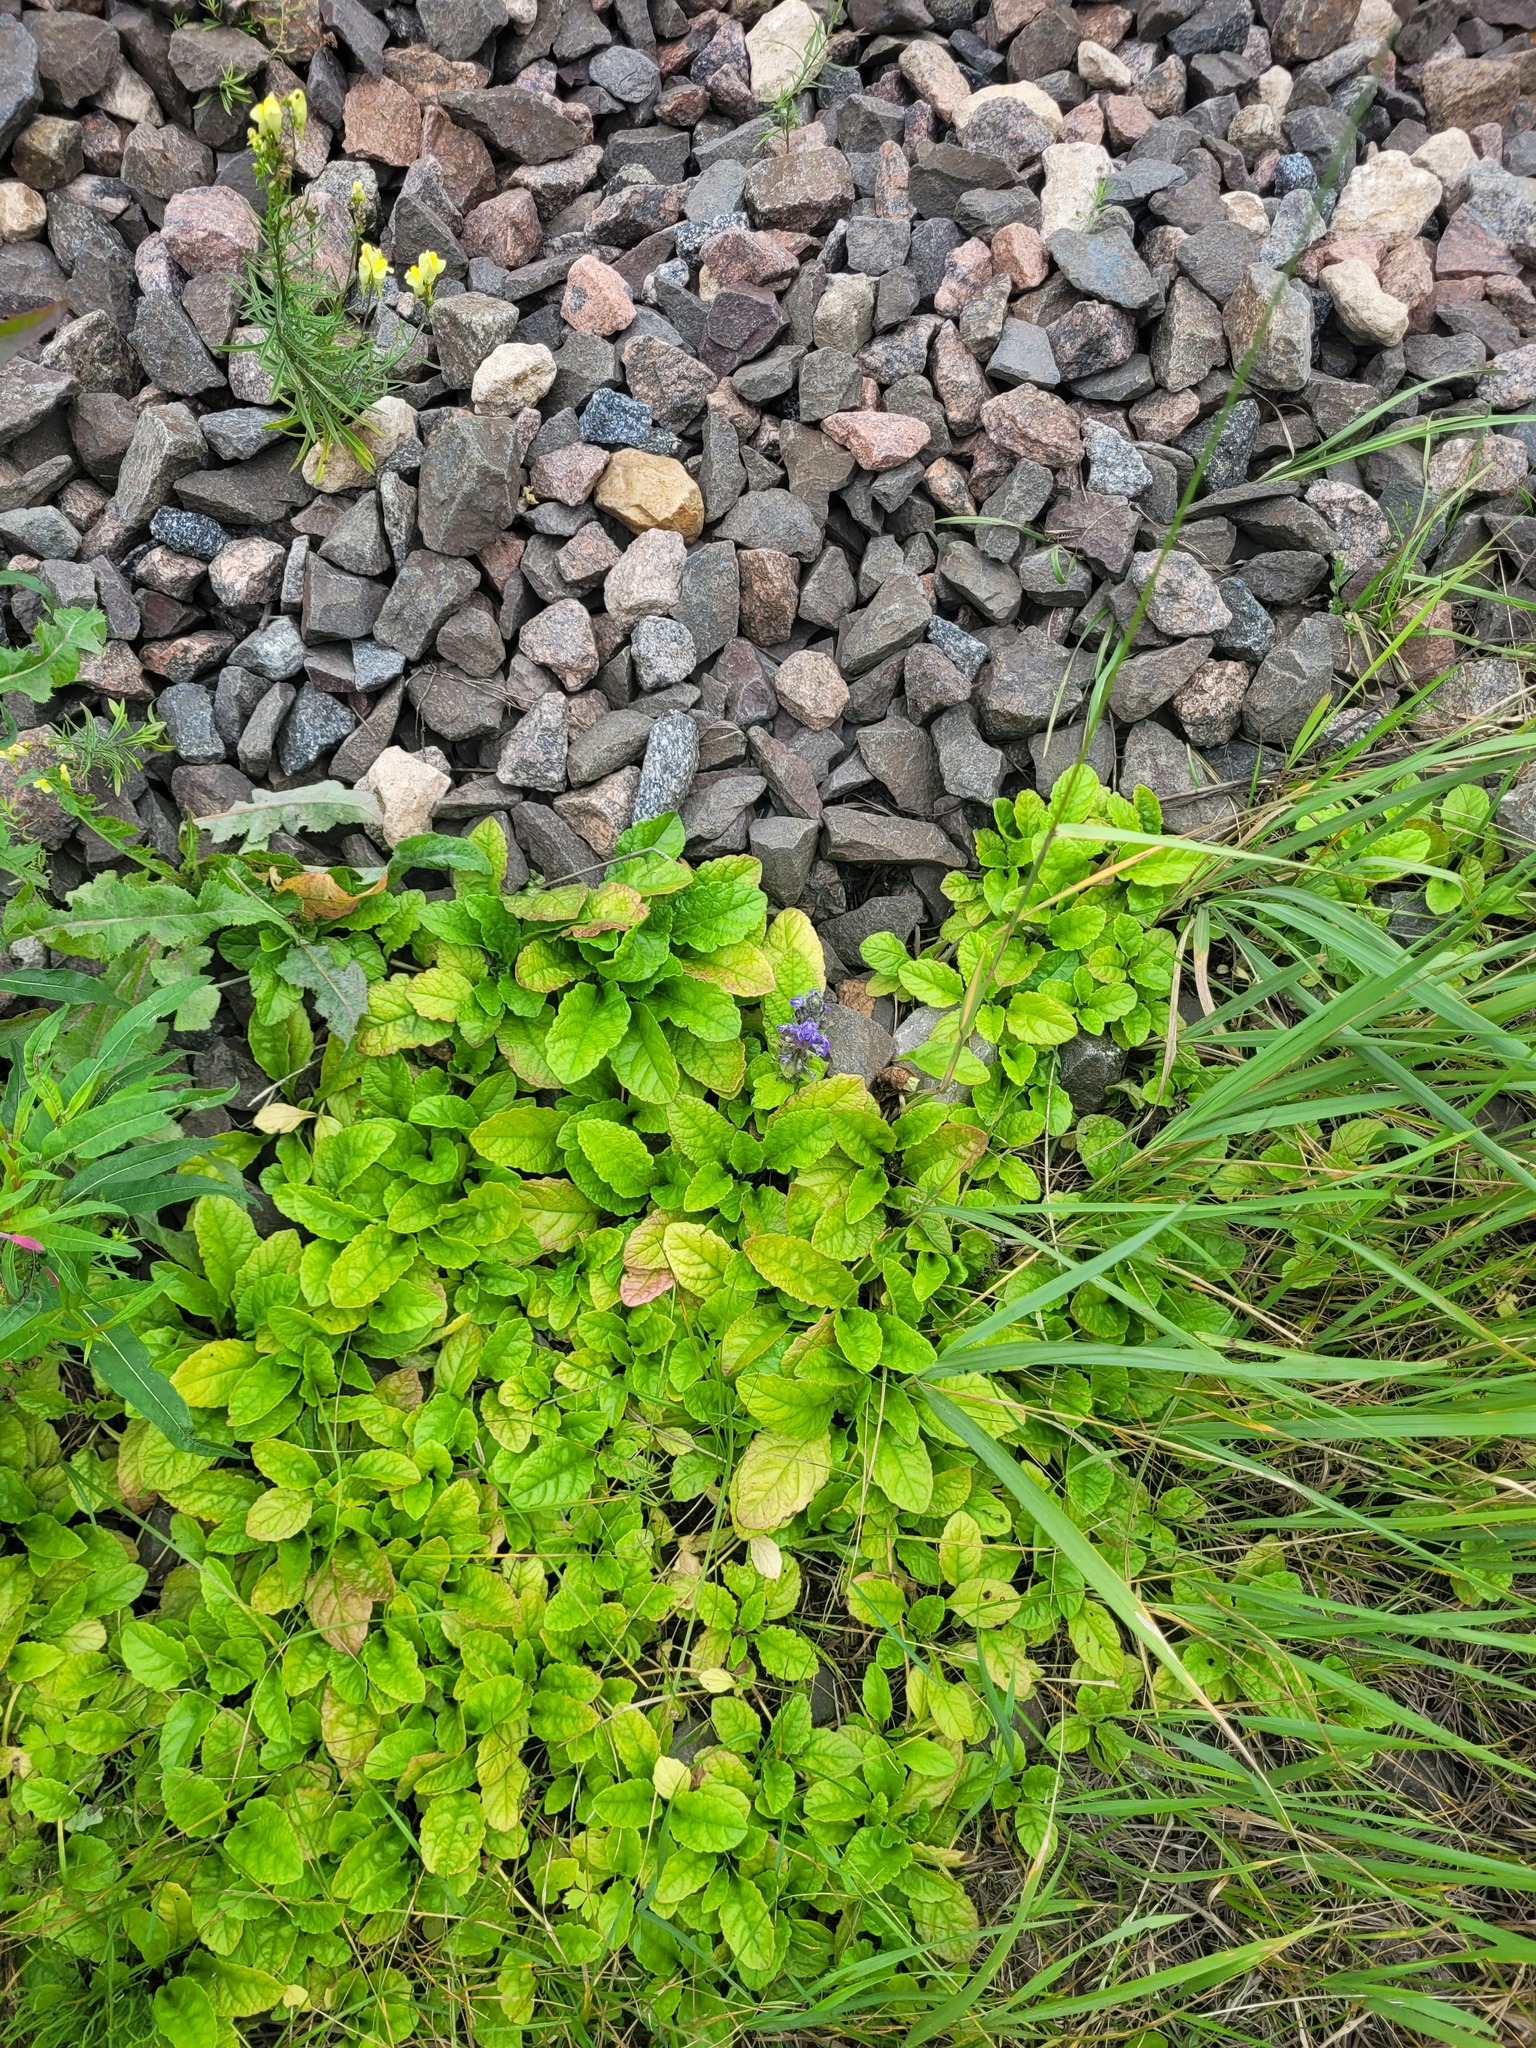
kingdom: Plantae
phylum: Tracheophyta
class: Magnoliopsida
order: Lamiales
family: Lamiaceae
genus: Ajuga
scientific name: Ajuga reptans
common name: Bugle
